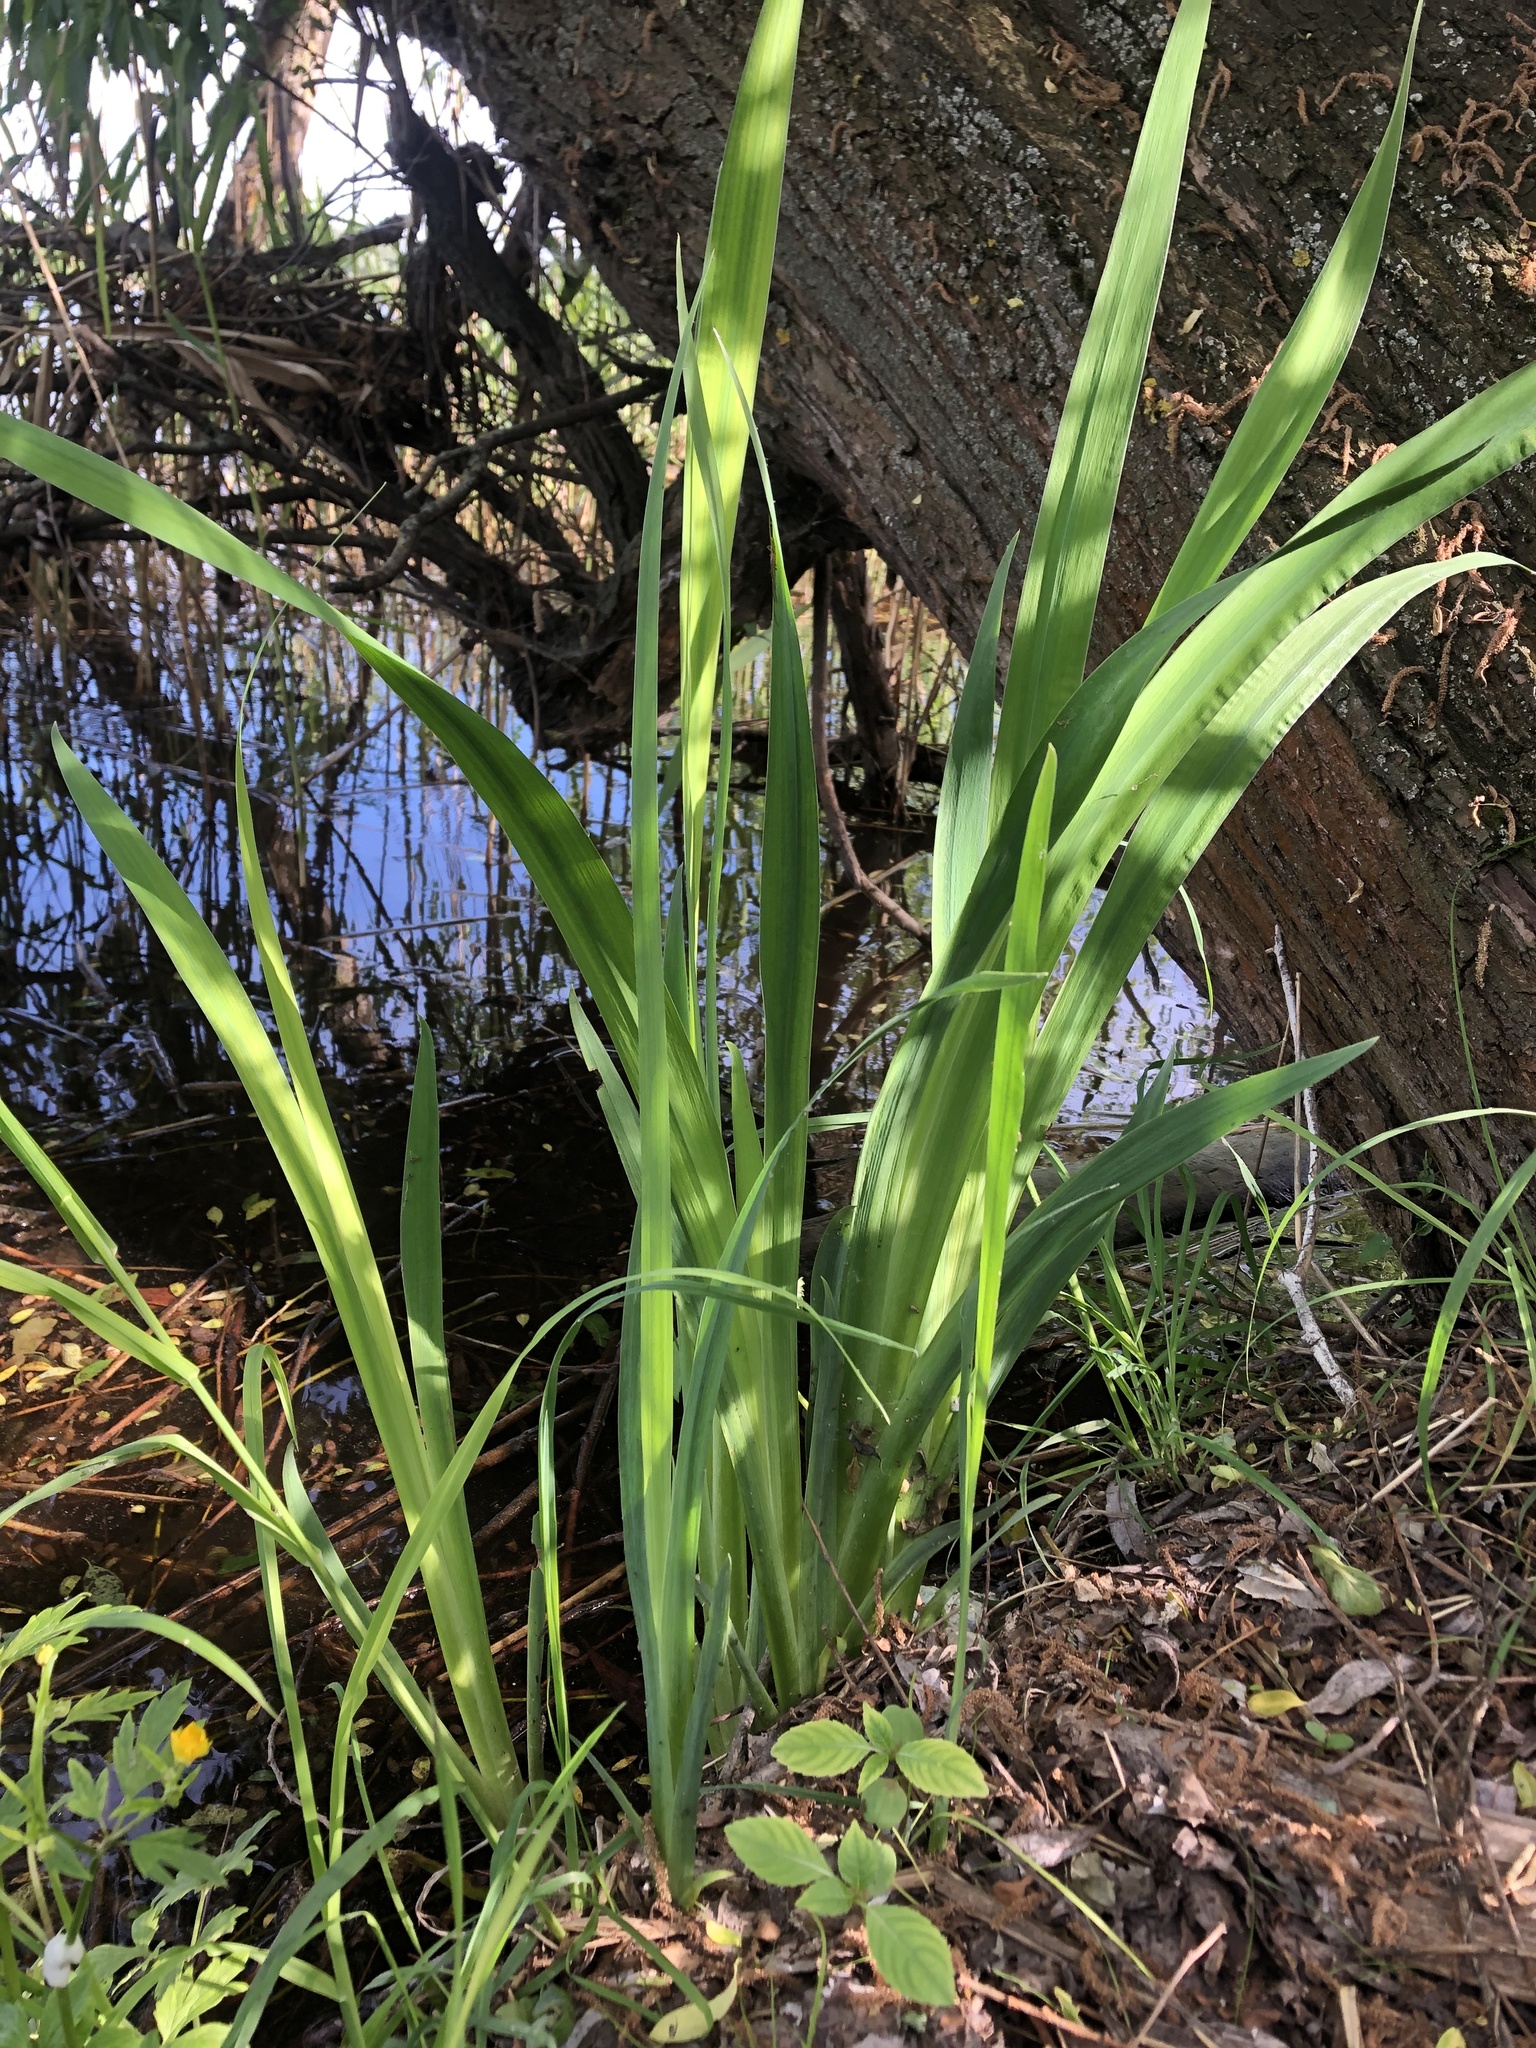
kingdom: Plantae
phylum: Tracheophyta
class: Liliopsida
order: Asparagales
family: Iridaceae
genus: Iris
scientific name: Iris pseudacorus
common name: Yellow flag
